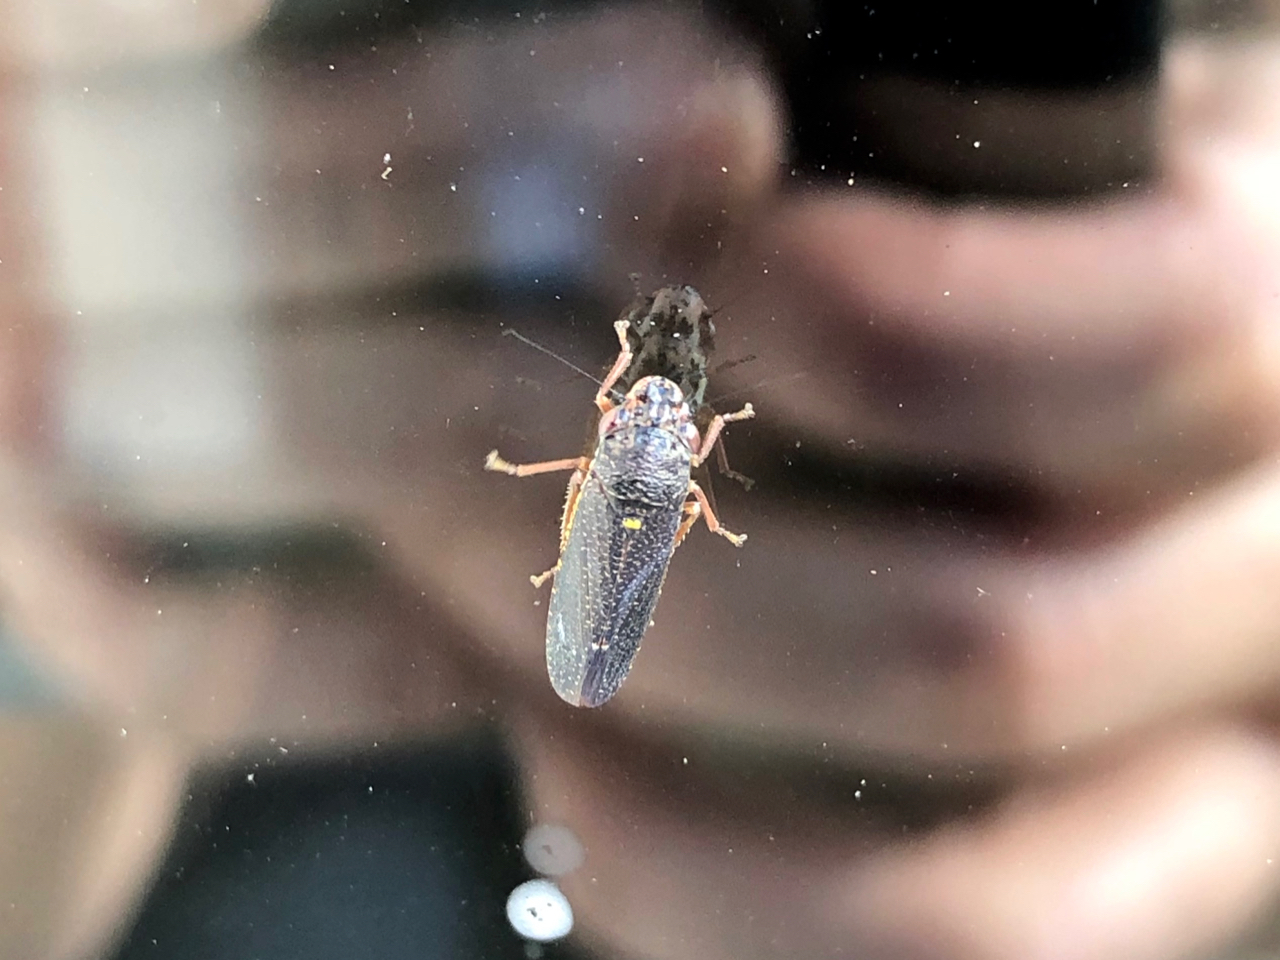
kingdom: Animalia
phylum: Arthropoda
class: Insecta
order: Hemiptera
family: Cicadellidae
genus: Paraulacizes
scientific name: Paraulacizes irrorata
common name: Speckled sharpshooter
